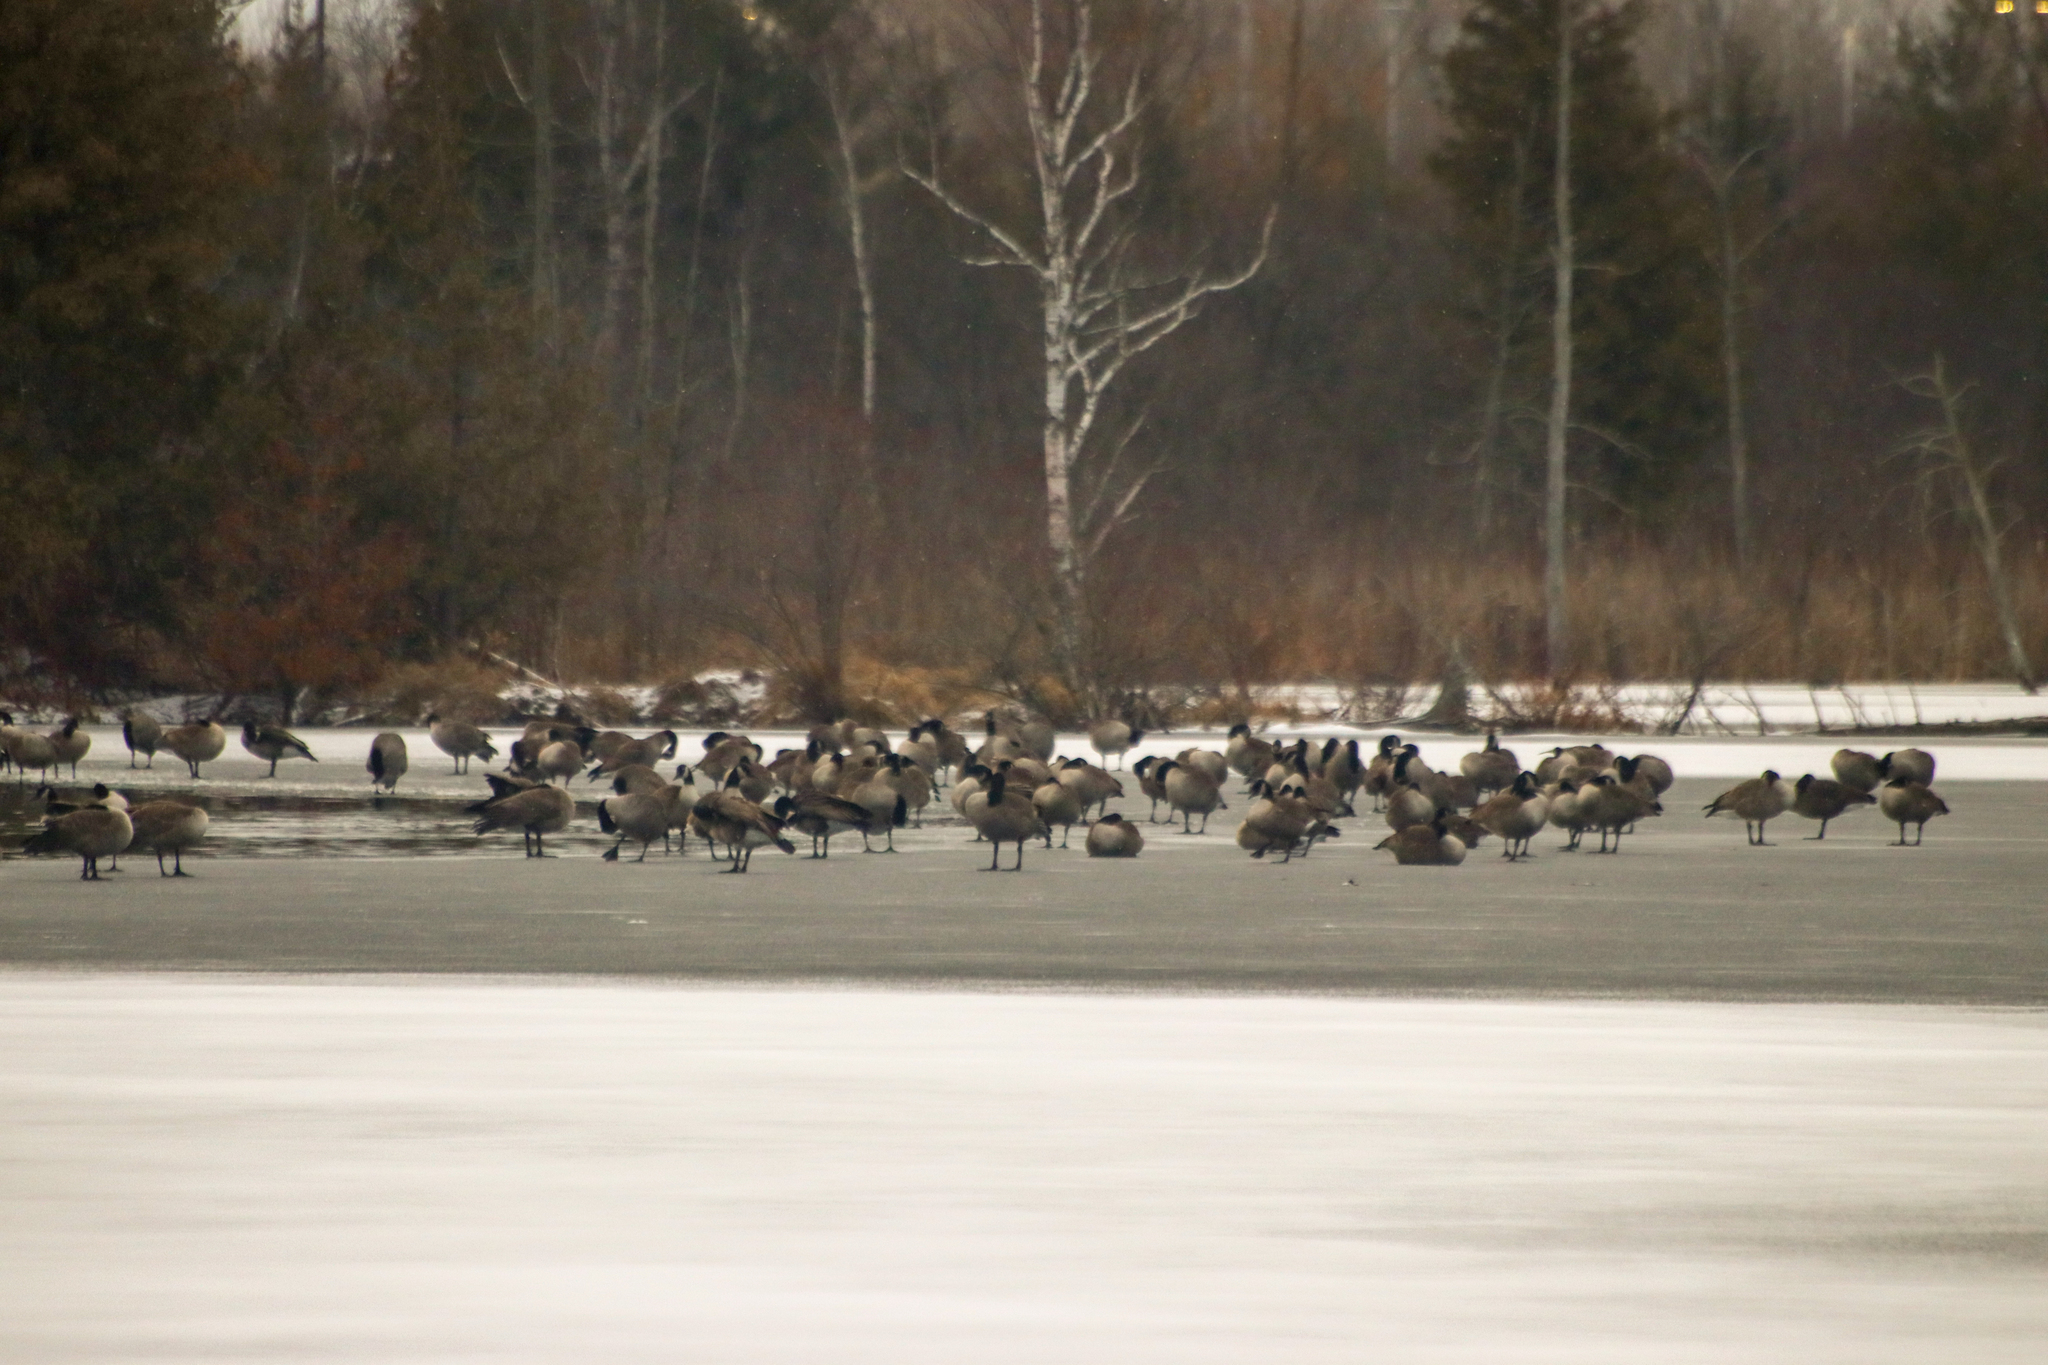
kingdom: Animalia
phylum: Chordata
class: Aves
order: Anseriformes
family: Anatidae
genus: Branta
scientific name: Branta canadensis
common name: Canada goose
